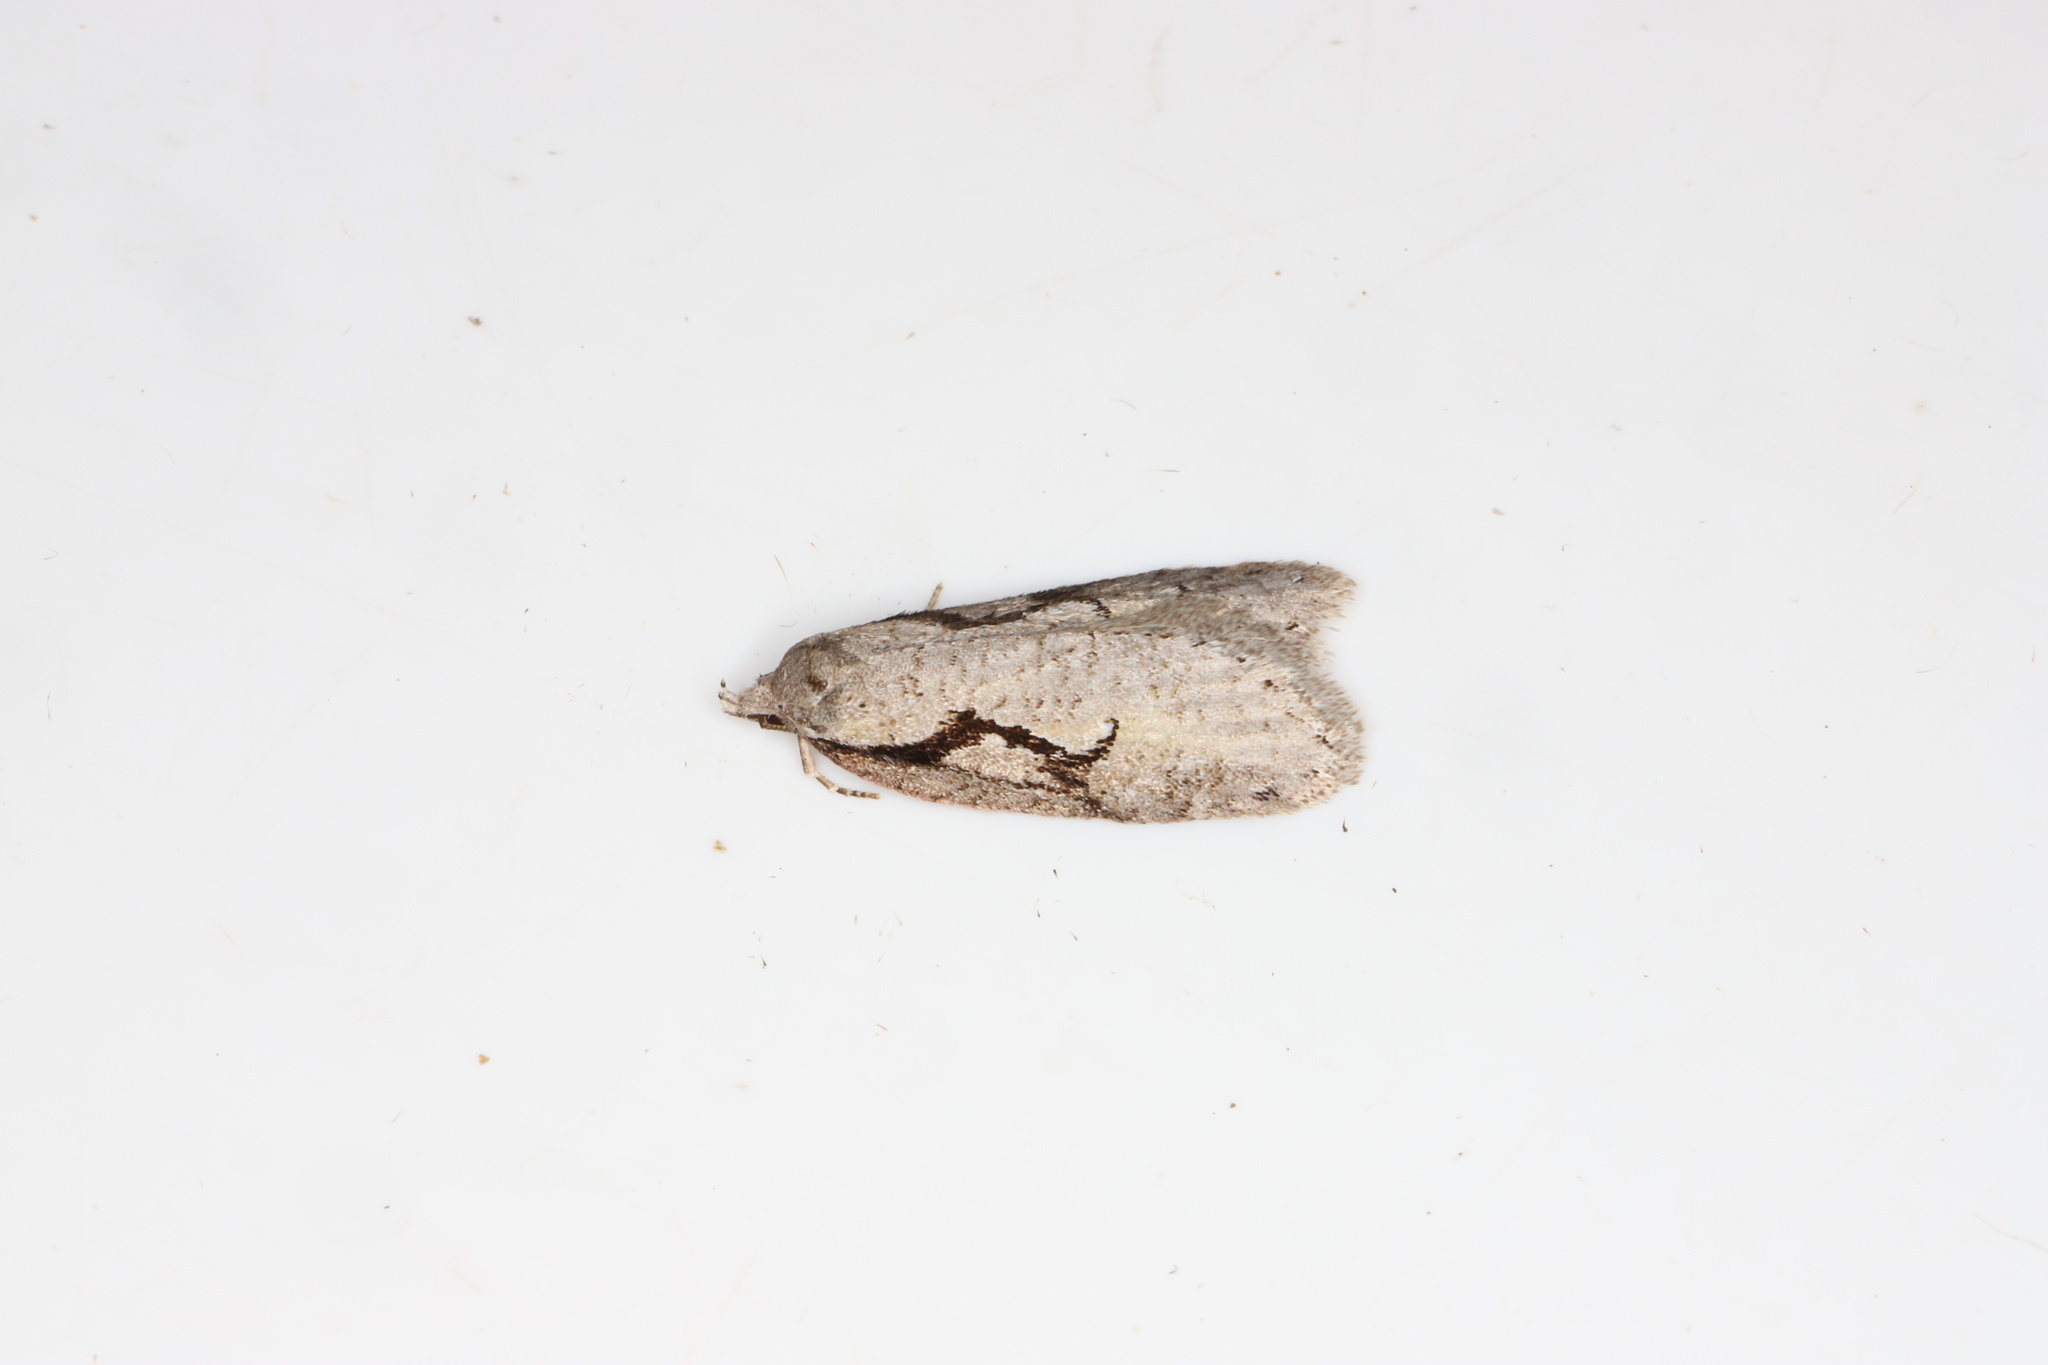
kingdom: Animalia
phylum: Arthropoda
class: Insecta
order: Lepidoptera
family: Depressariidae
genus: Semioscopis
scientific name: Semioscopis packardella
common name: Packard's concealer moth
